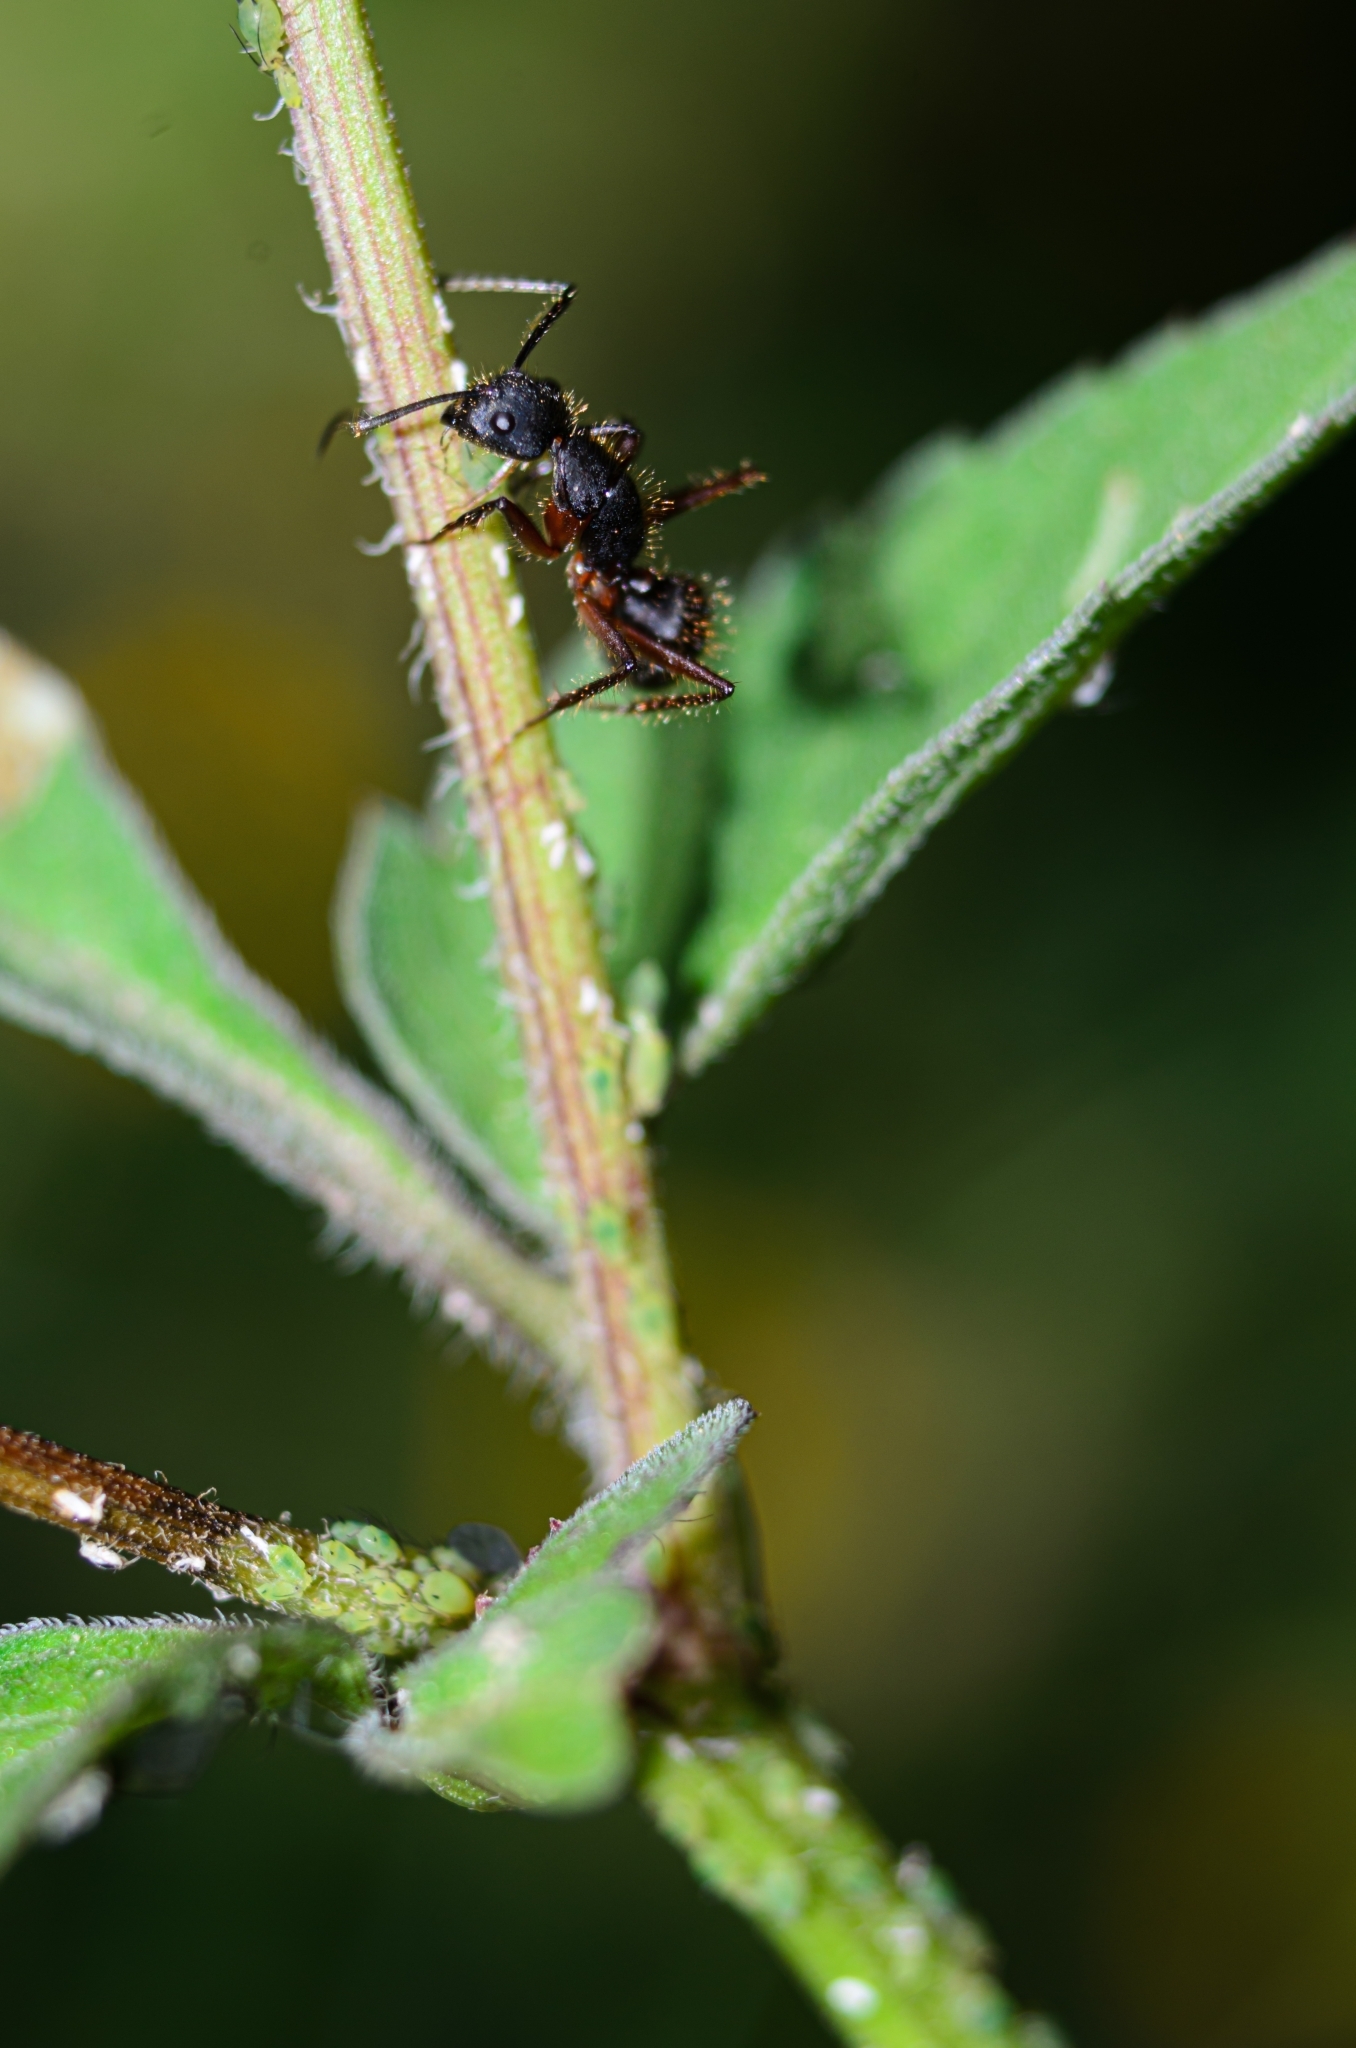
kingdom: Animalia
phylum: Arthropoda
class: Insecta
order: Hymenoptera
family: Formicidae
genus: Camponotus
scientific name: Camponotus rufipes
